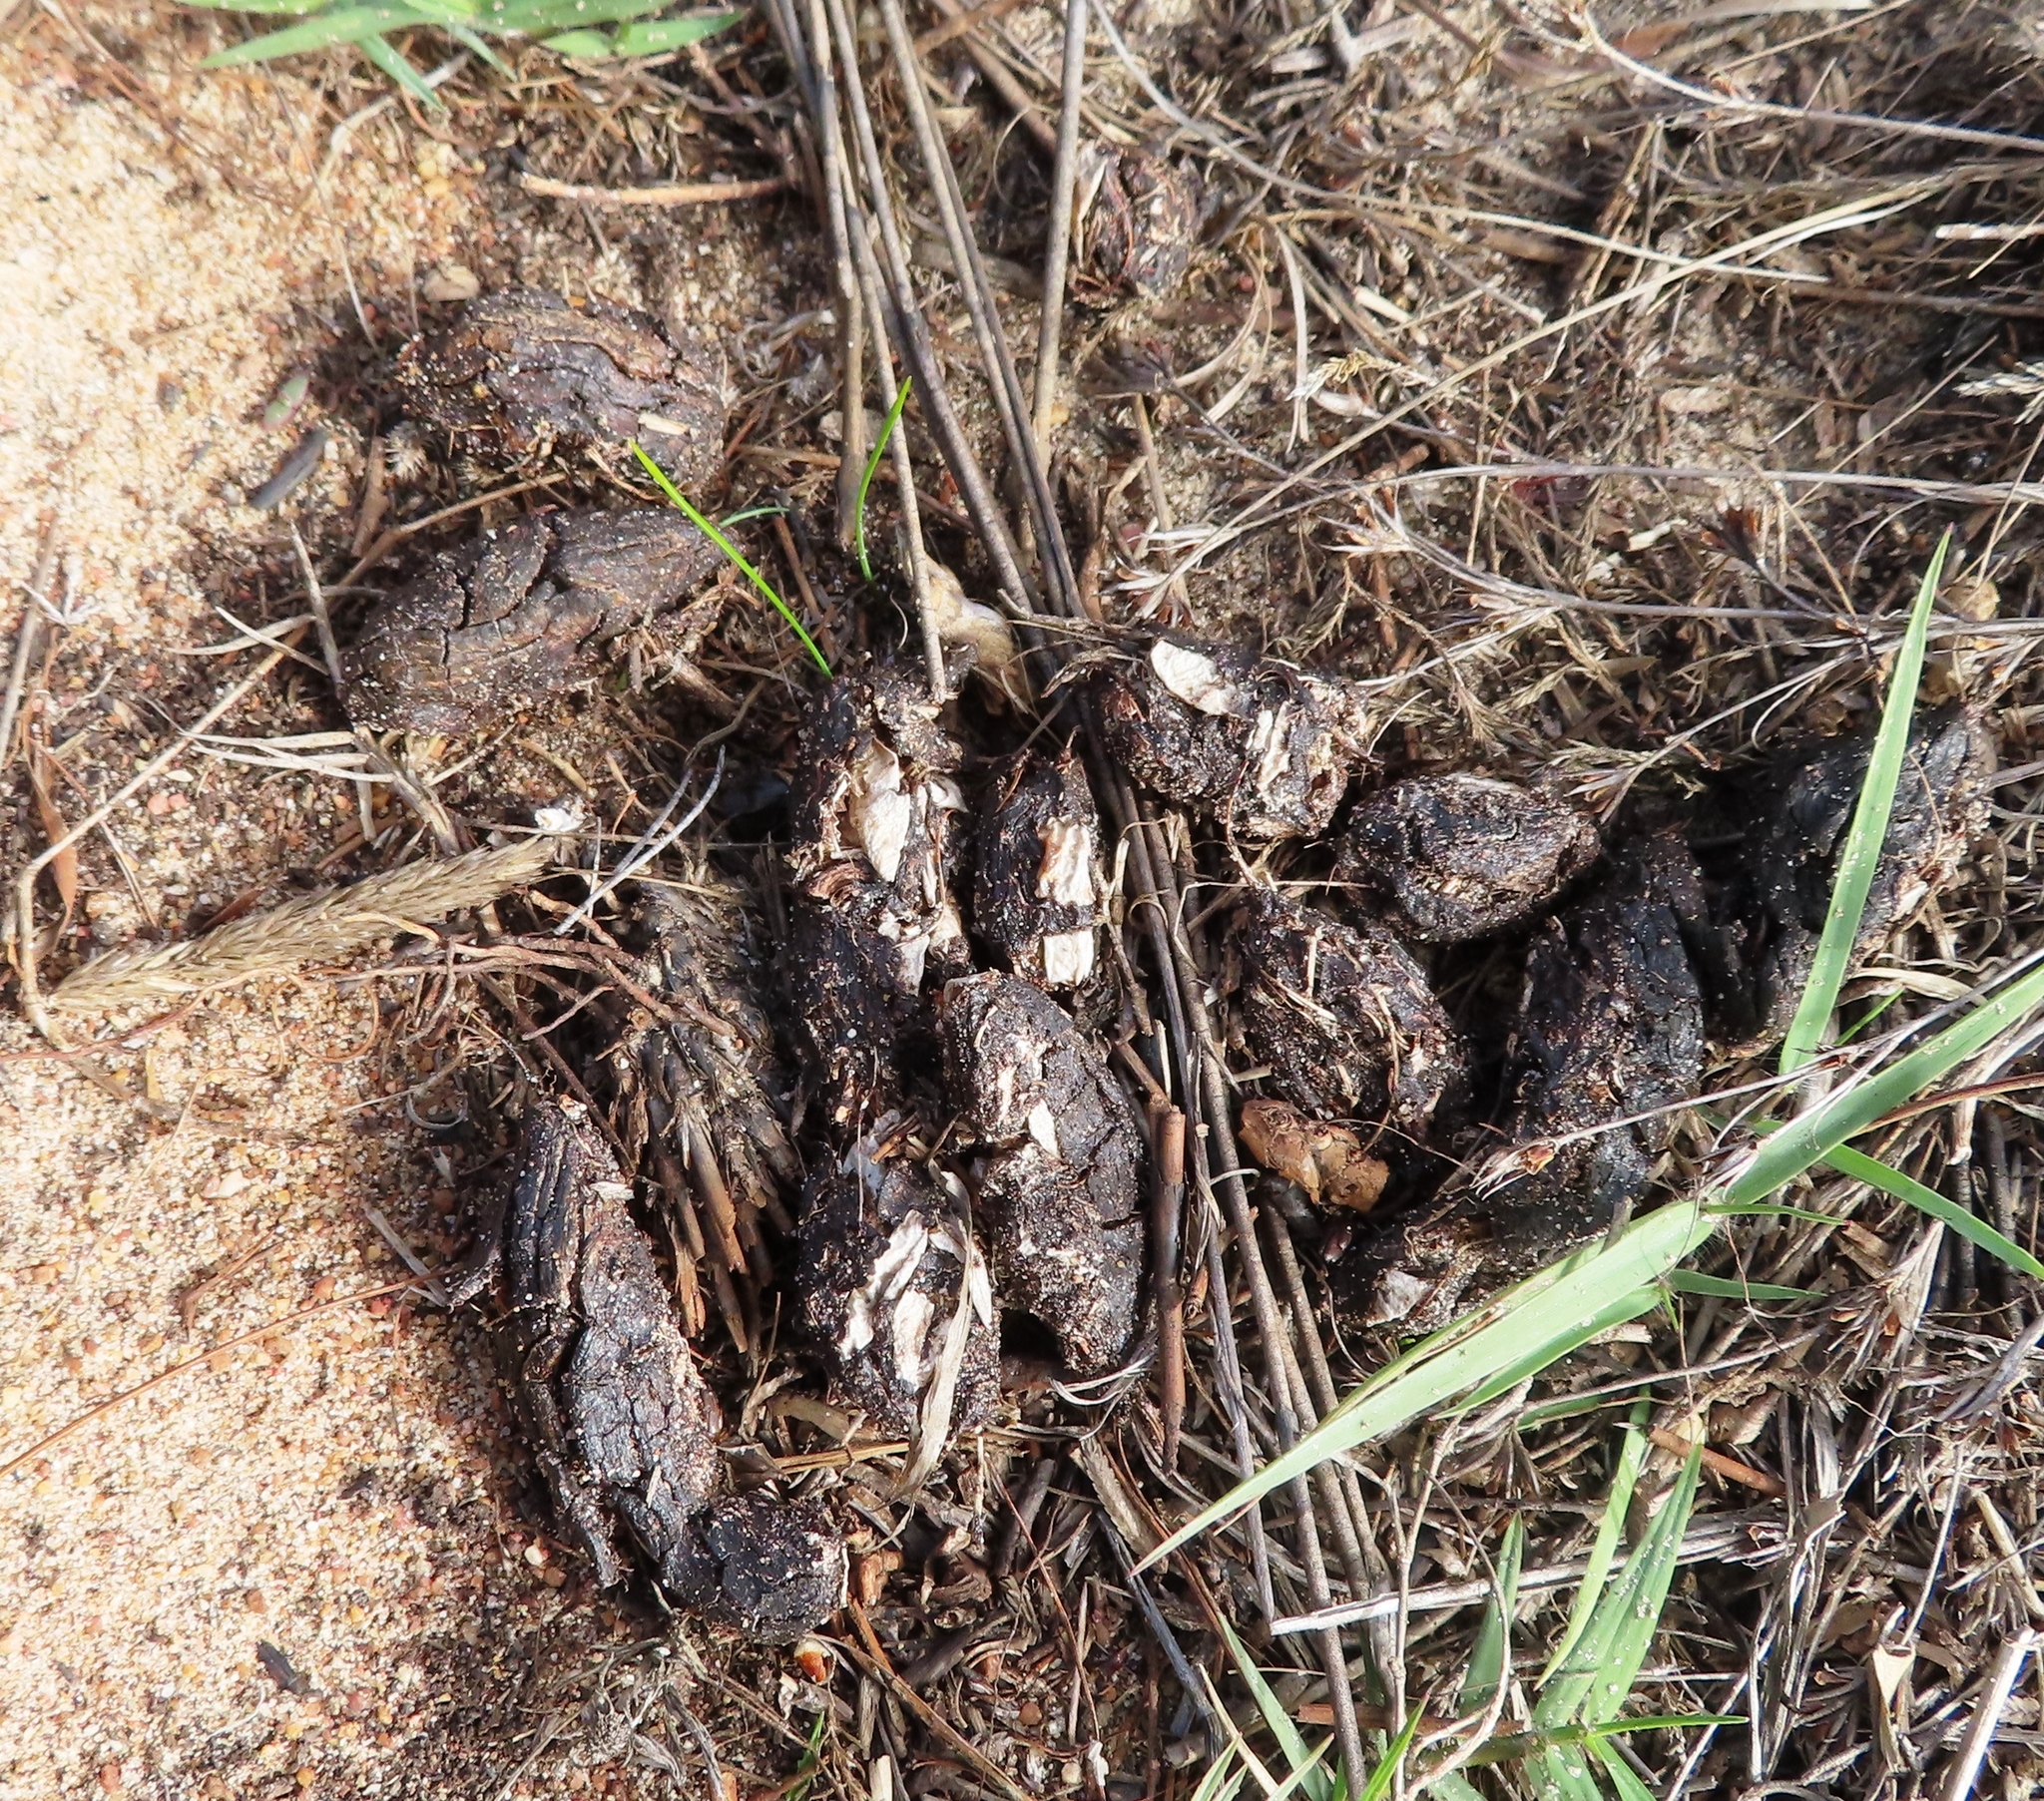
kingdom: Animalia
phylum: Chordata
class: Mammalia
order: Rodentia
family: Hystricidae
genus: Hystrix
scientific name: Hystrix africaeaustralis
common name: Cape porcupine
